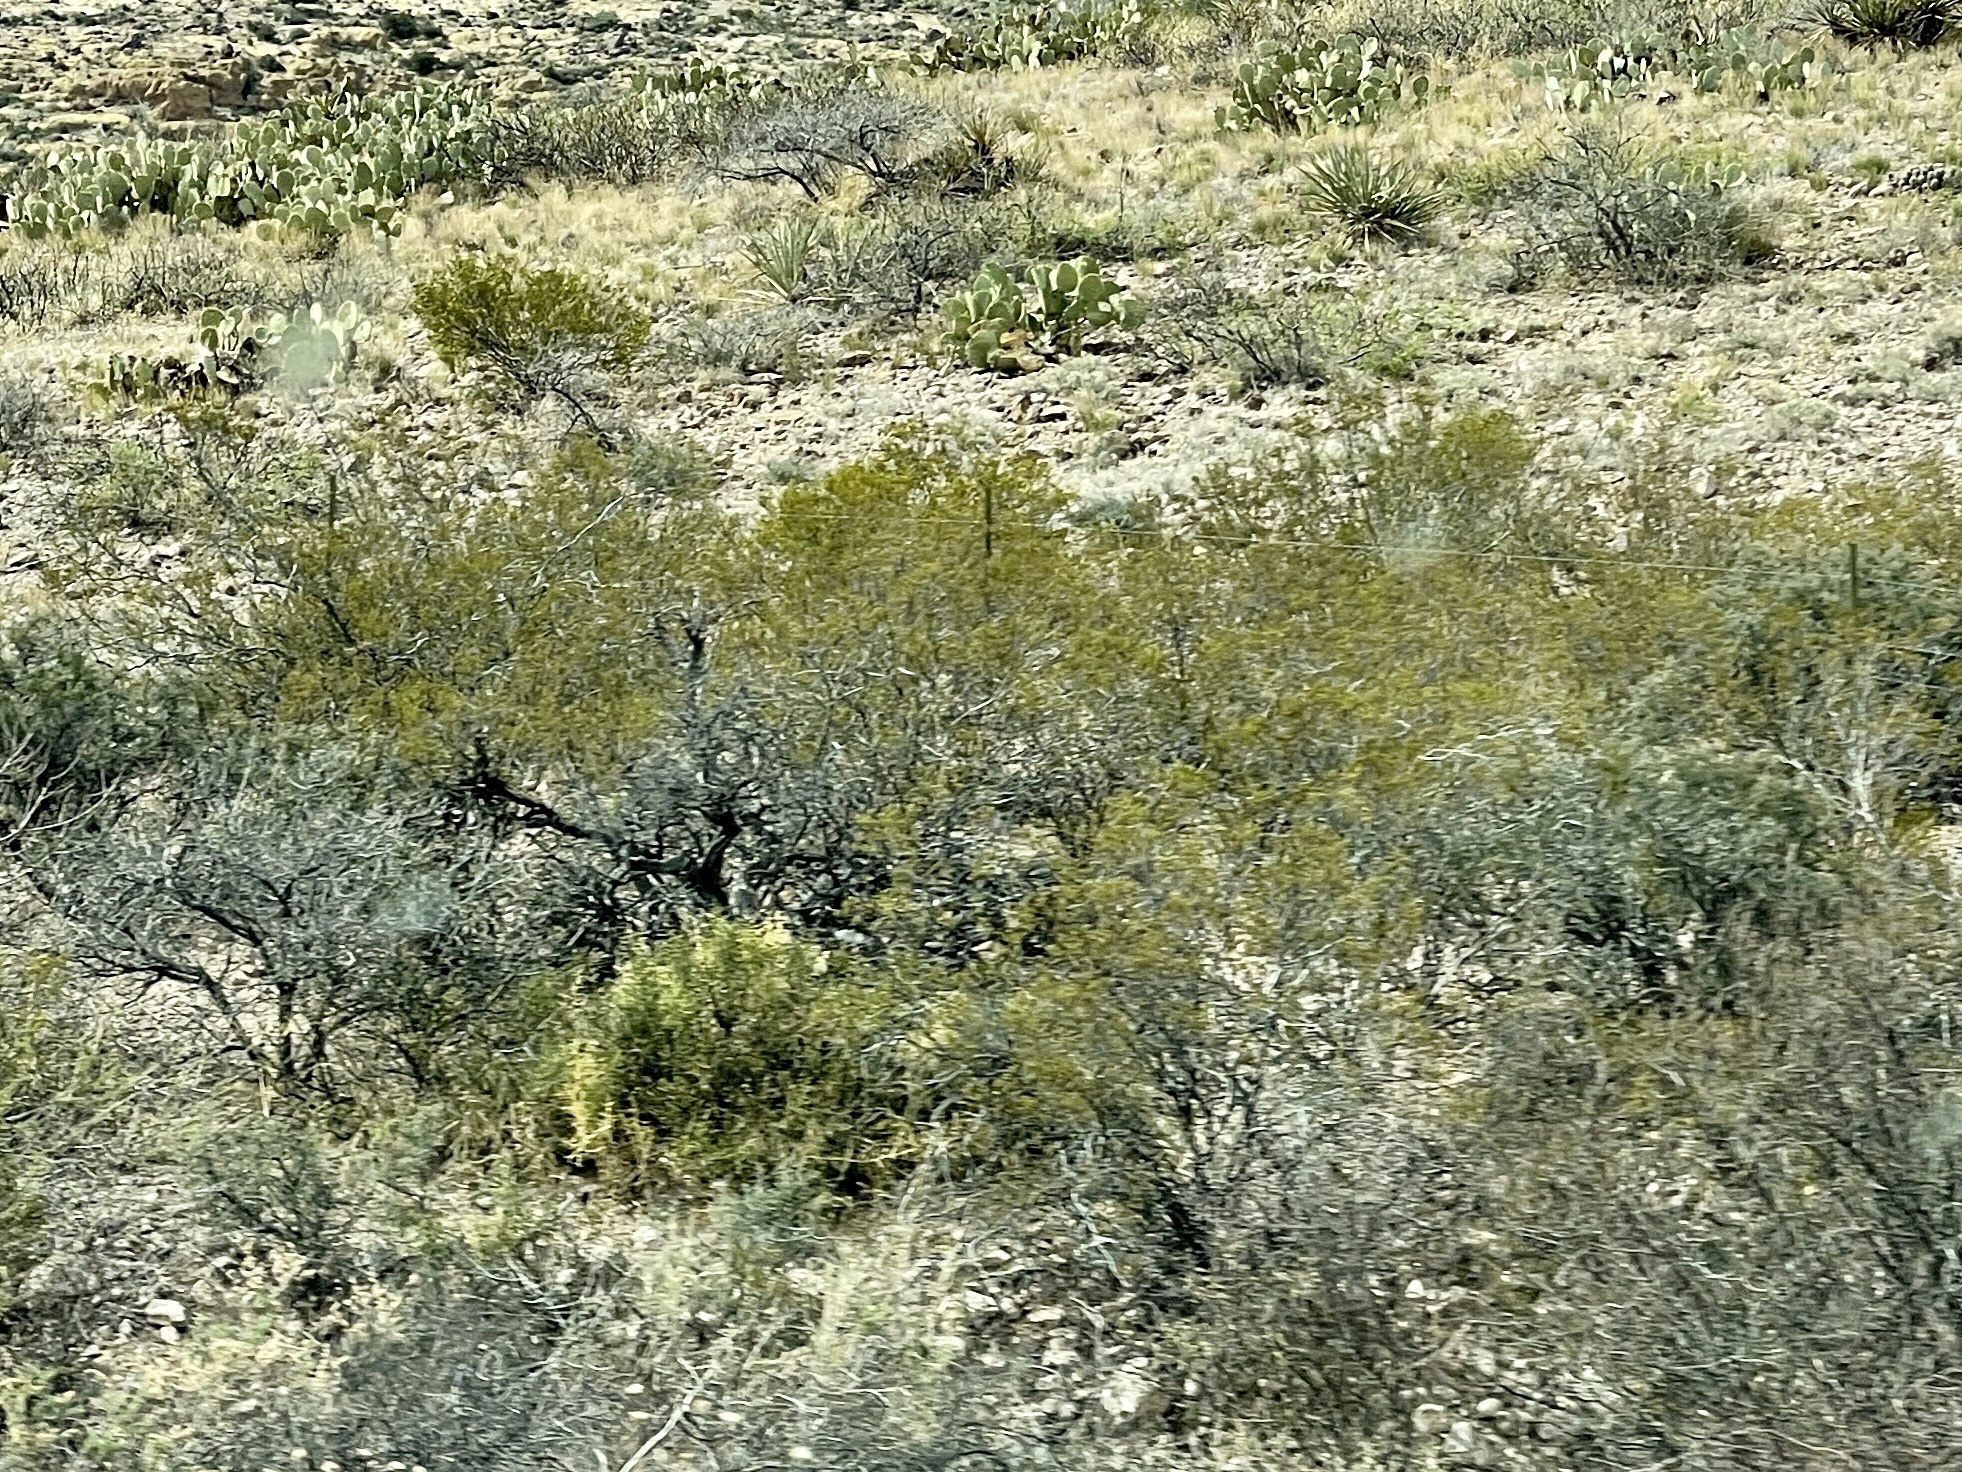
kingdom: Plantae
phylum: Tracheophyta
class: Magnoliopsida
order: Zygophyllales
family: Zygophyllaceae
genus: Larrea
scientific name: Larrea tridentata
